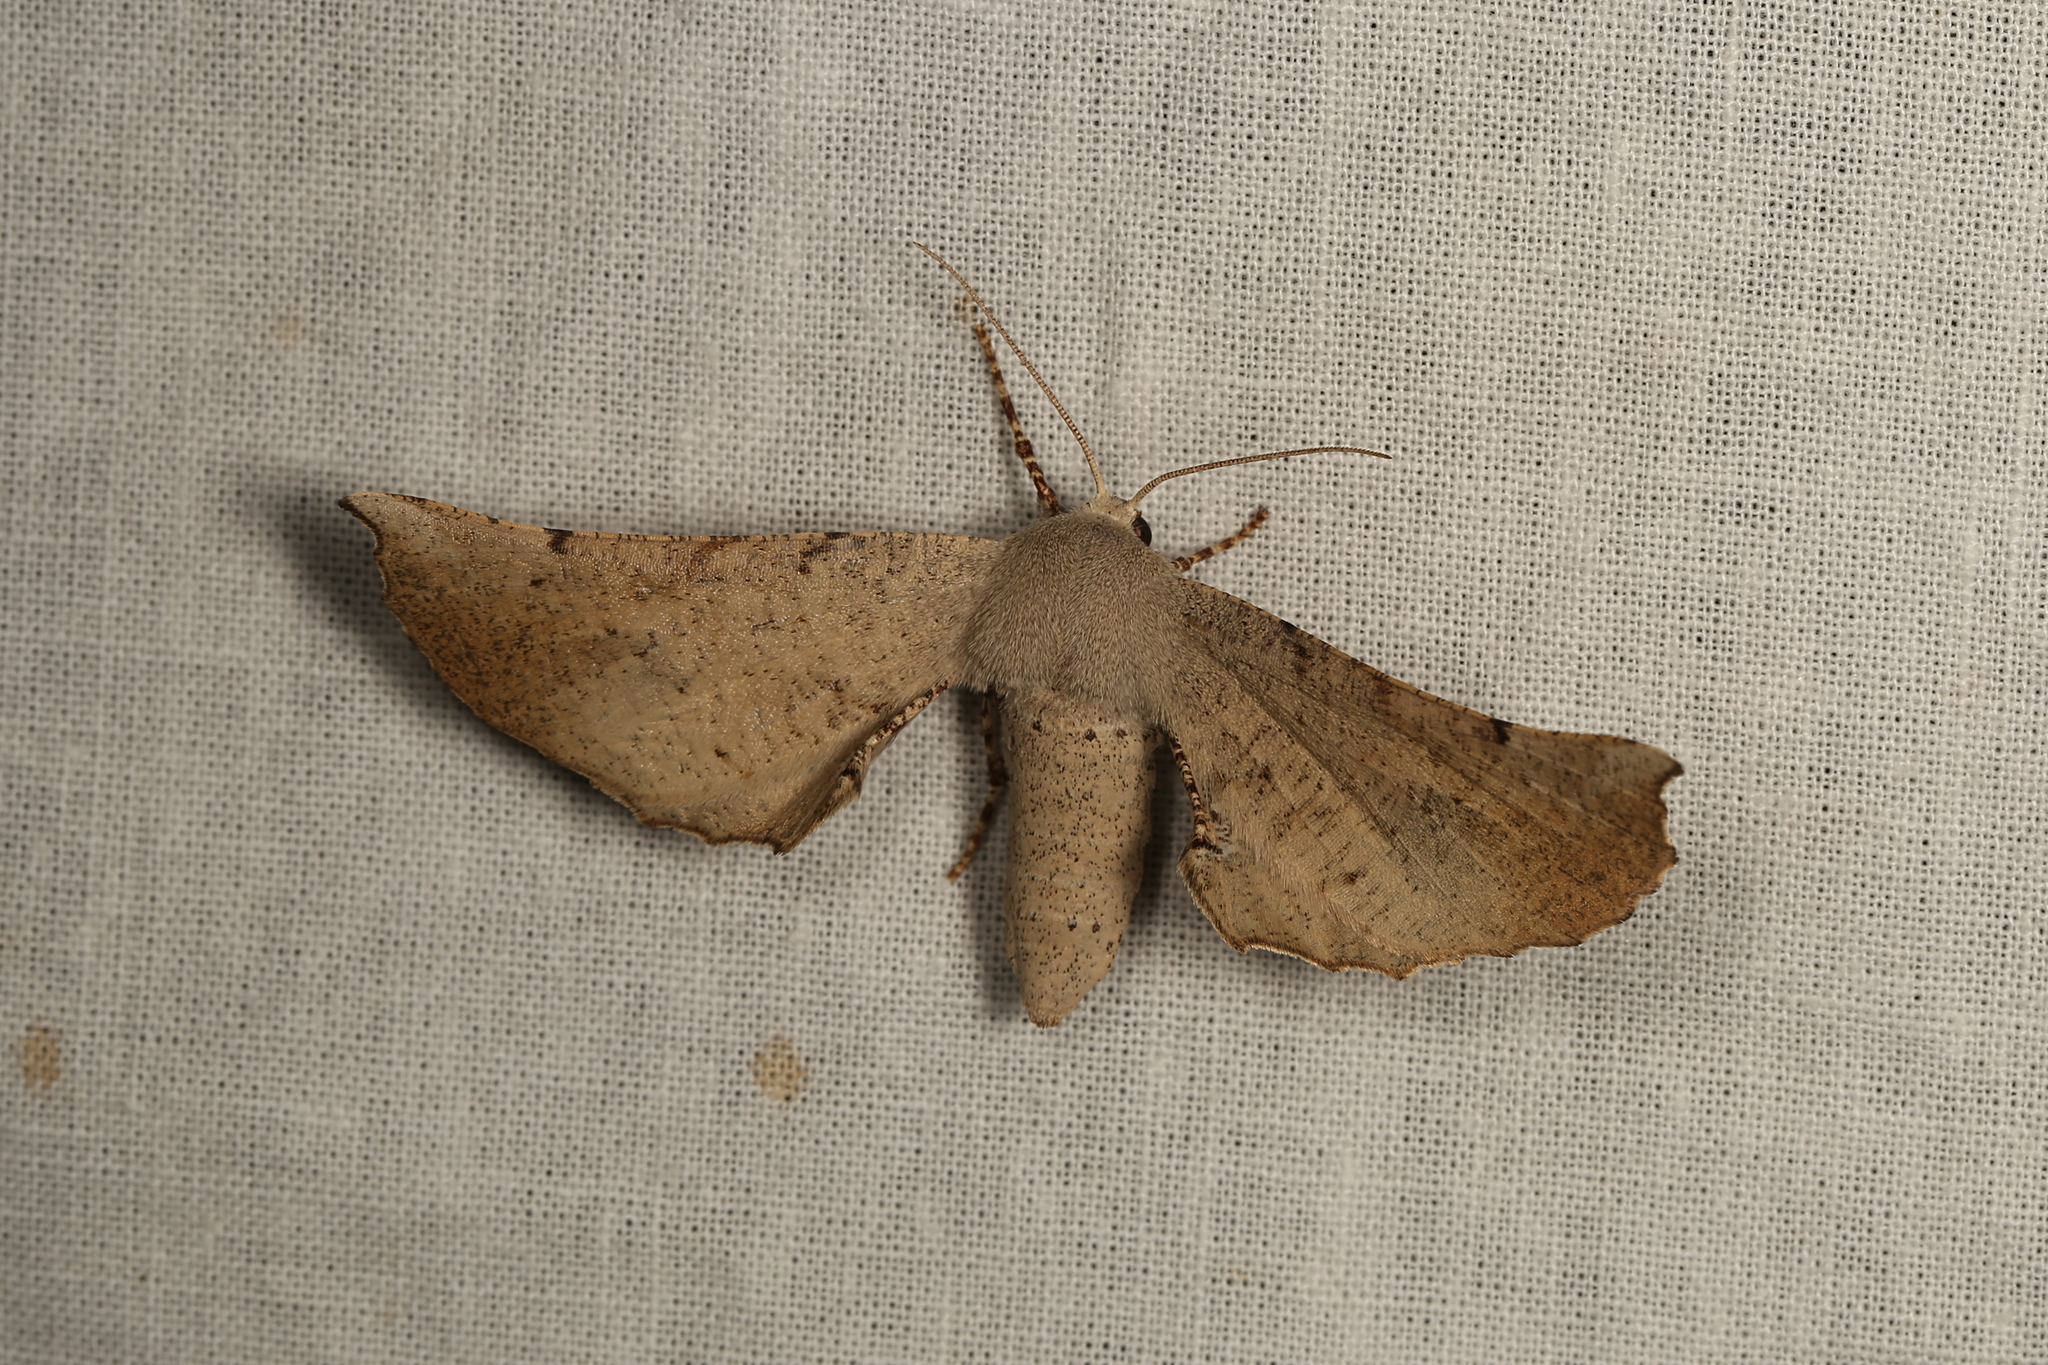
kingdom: Animalia
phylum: Arthropoda
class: Insecta
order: Lepidoptera
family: Geometridae
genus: Circopetes
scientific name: Circopetes obtusata
